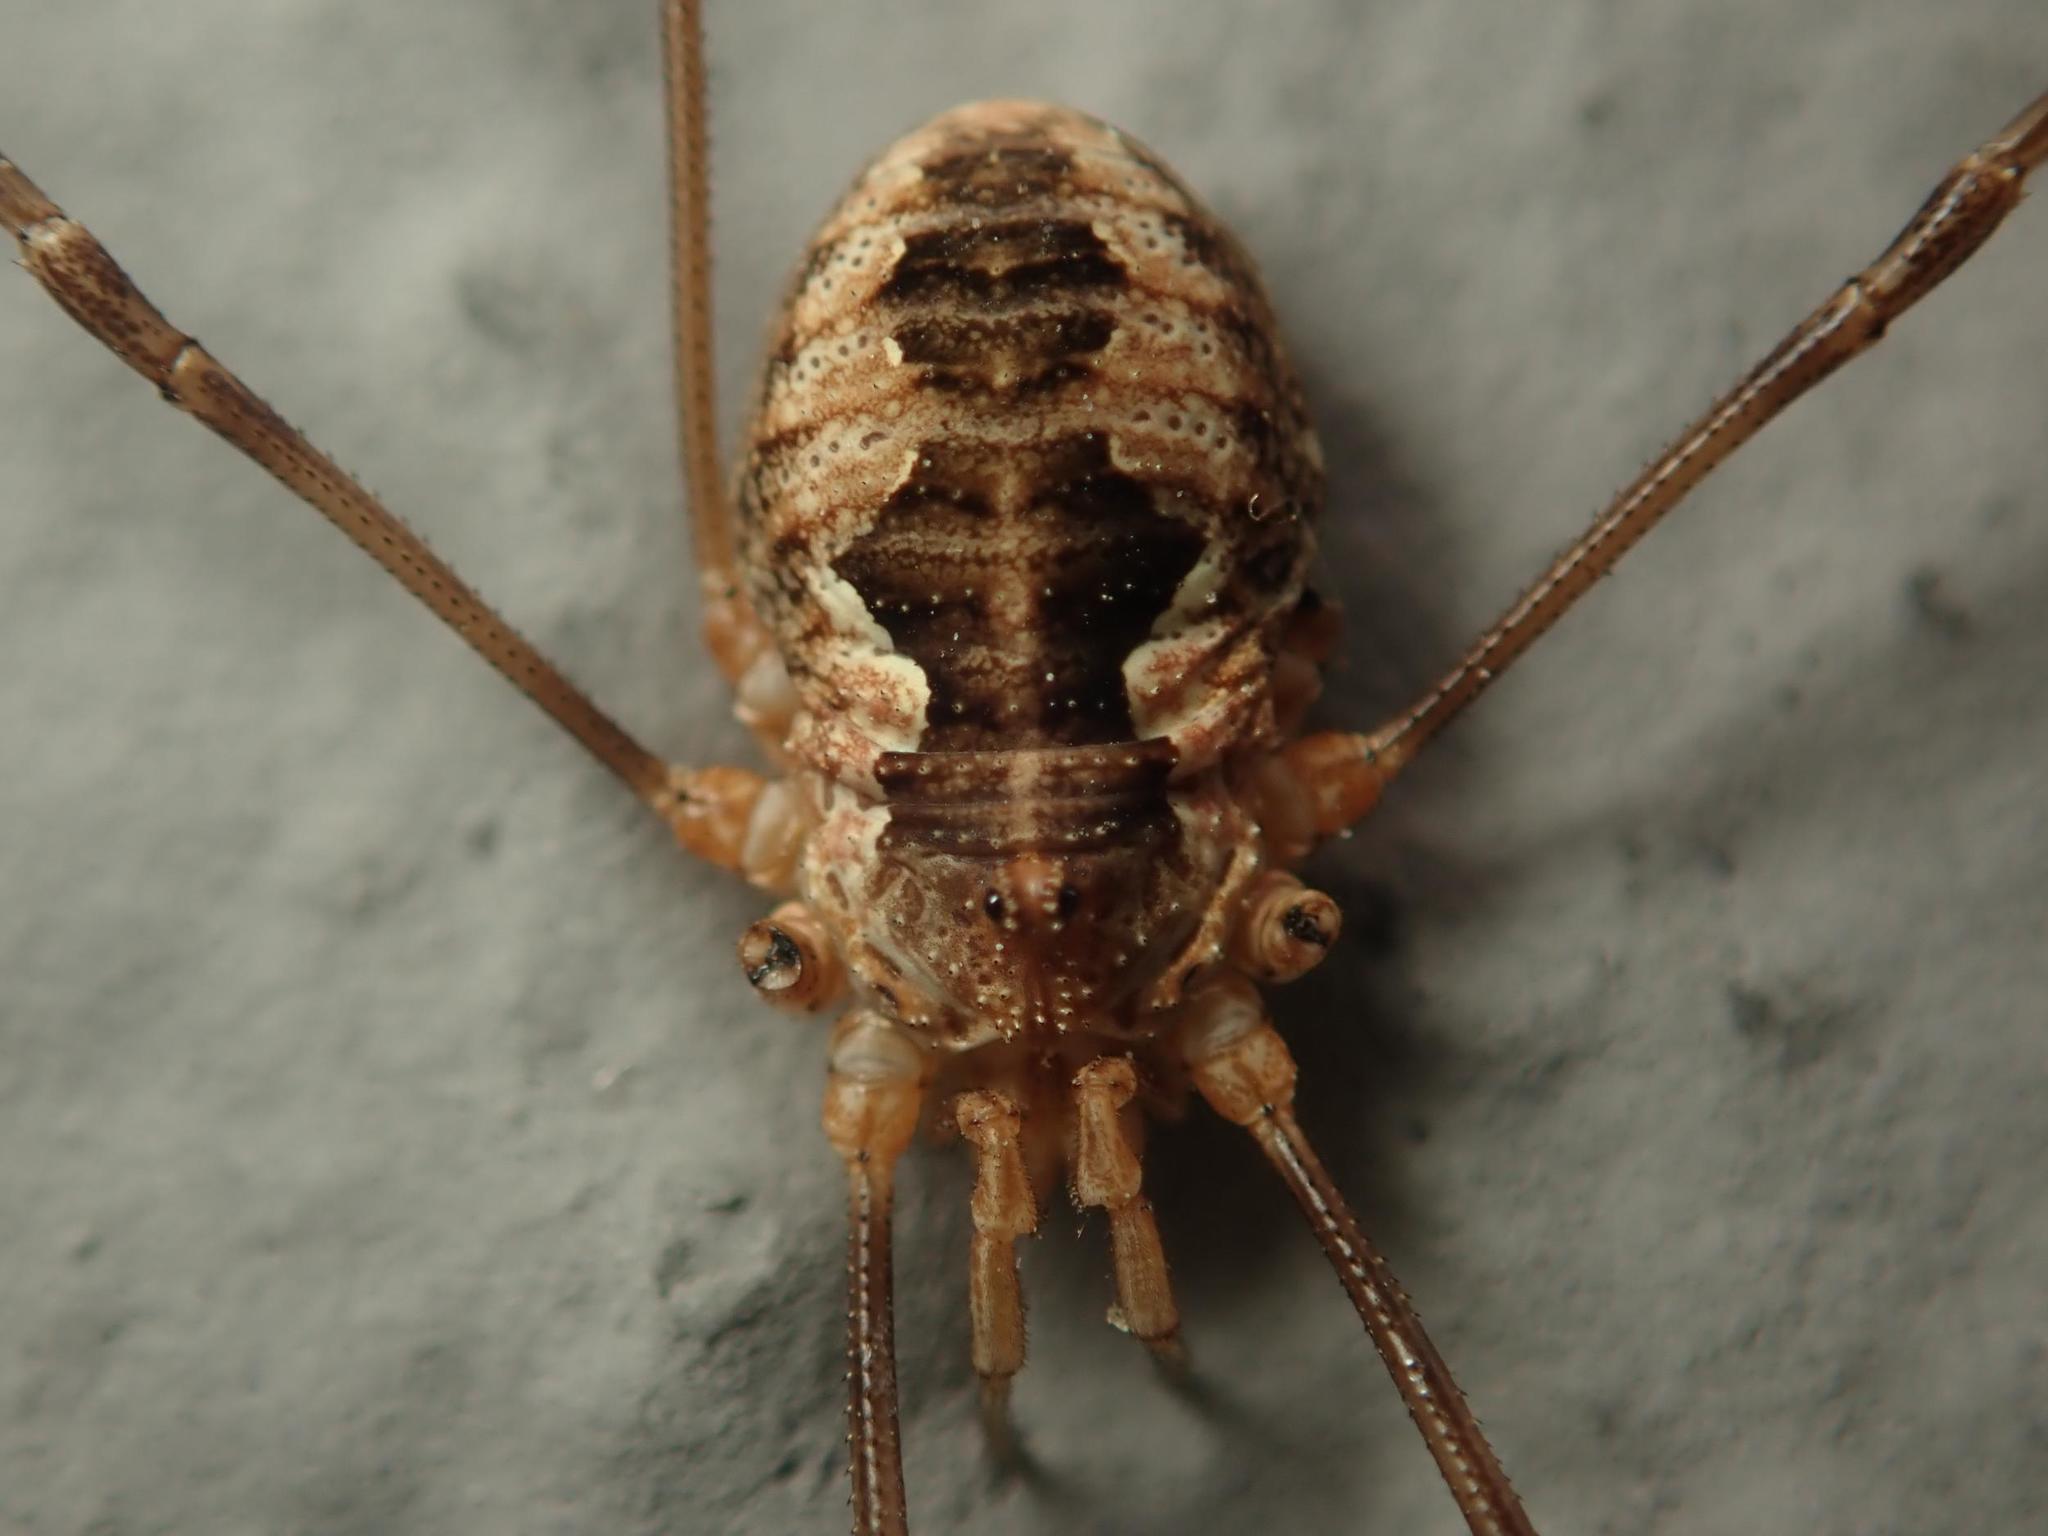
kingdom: Animalia
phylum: Arthropoda
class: Arachnida
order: Opiliones
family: Phalangiidae
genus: Phalangium
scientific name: Phalangium opilio
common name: Daddy longleg
